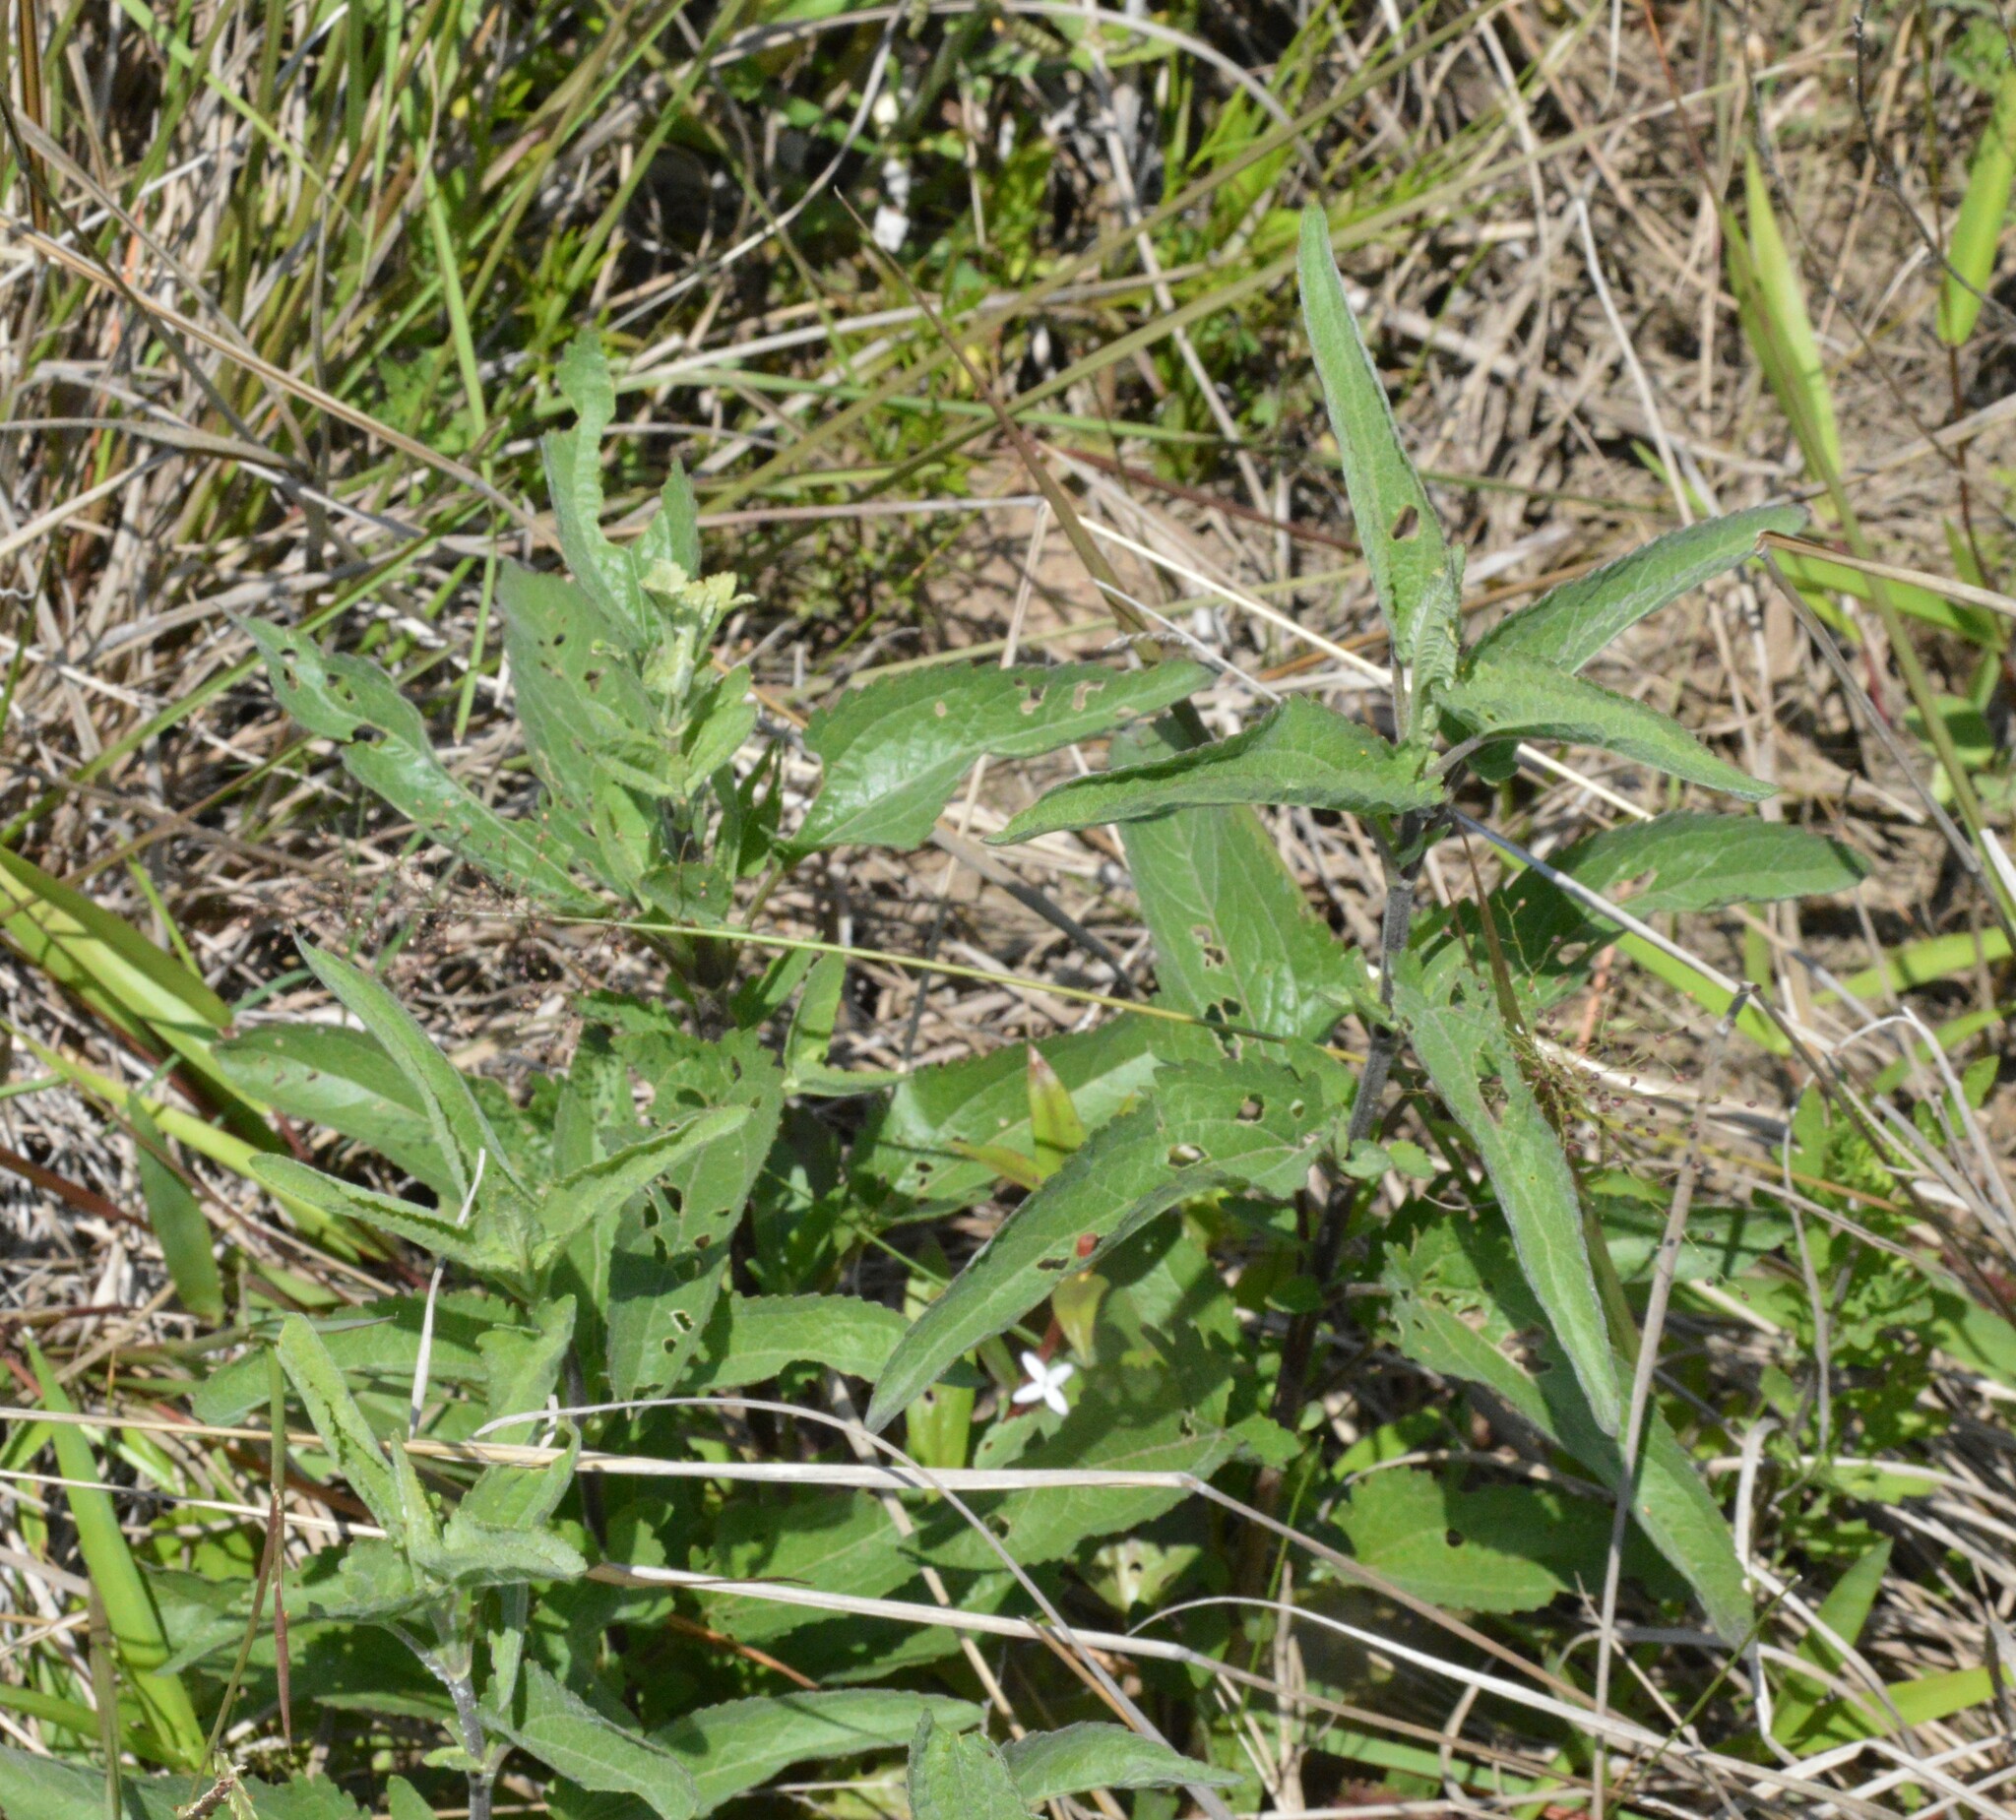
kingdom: Plantae
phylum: Tracheophyta
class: Magnoliopsida
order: Asterales
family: Asteraceae
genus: Eupatorium
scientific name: Eupatorium serotinum
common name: Late boneset
